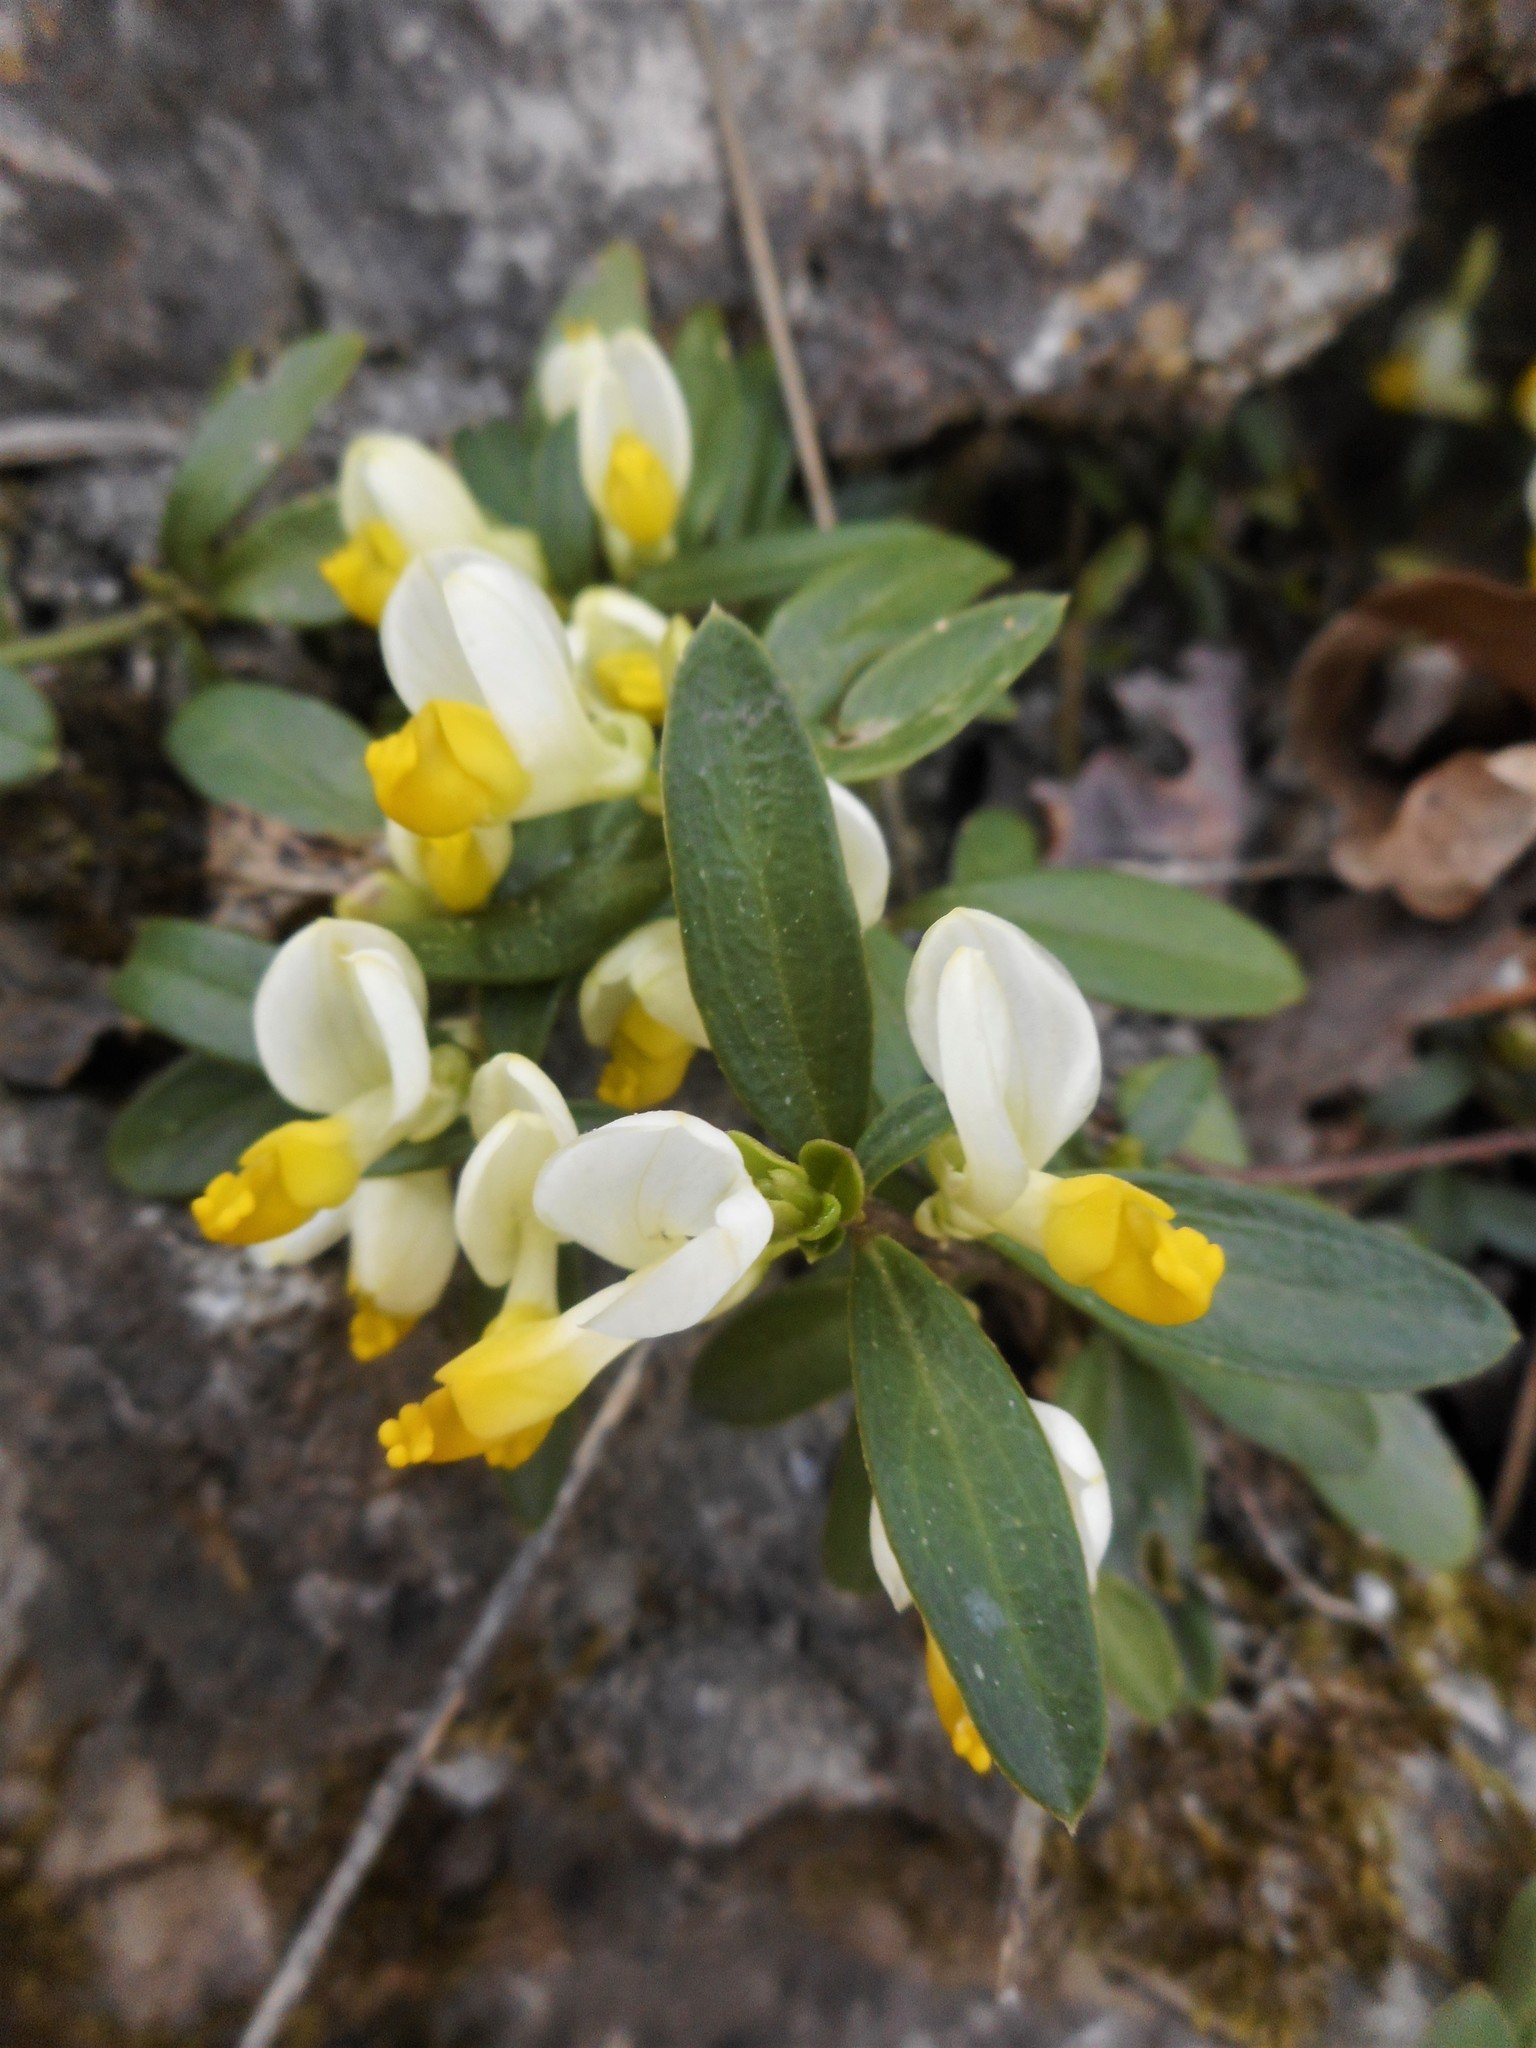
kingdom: Plantae
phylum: Tracheophyta
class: Magnoliopsida
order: Fabales
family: Polygalaceae
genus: Polygaloides
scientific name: Polygaloides chamaebuxus
